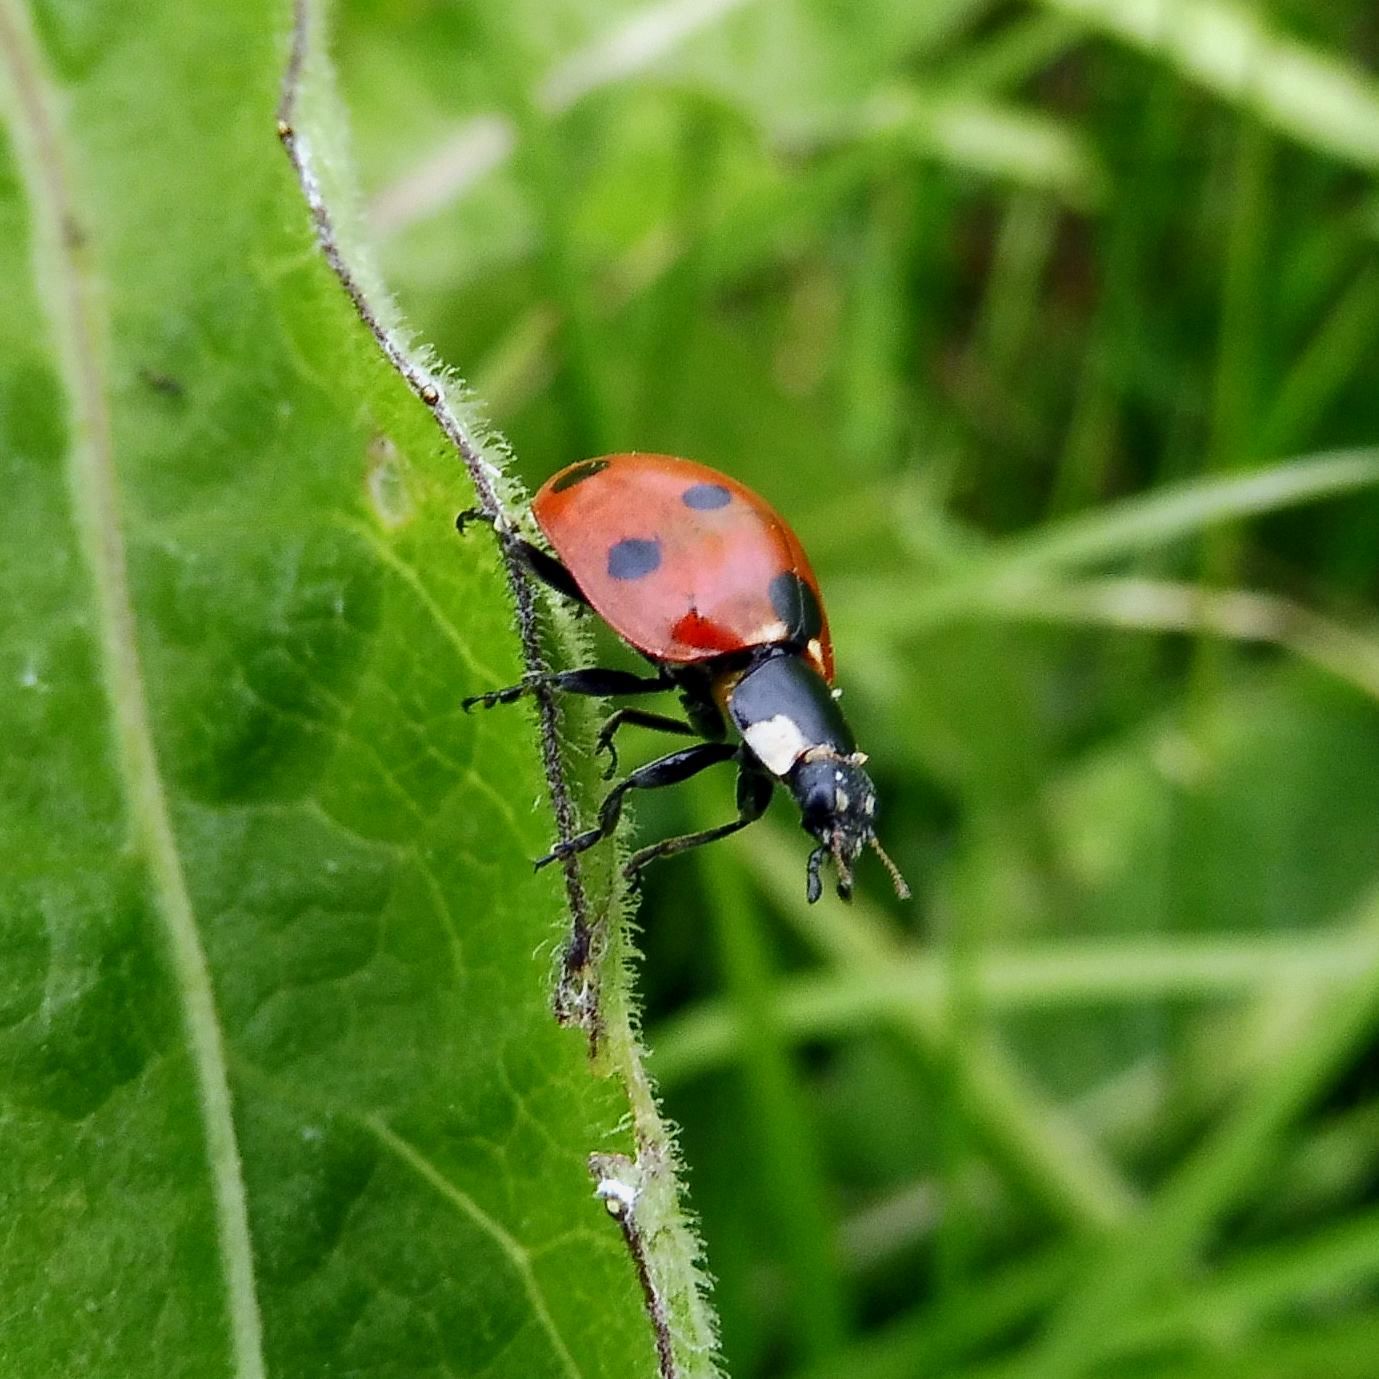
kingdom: Animalia
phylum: Arthropoda
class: Insecta
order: Coleoptera
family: Coccinellidae
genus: Coccinella
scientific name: Coccinella septempunctata
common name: Sevenspotted lady beetle
